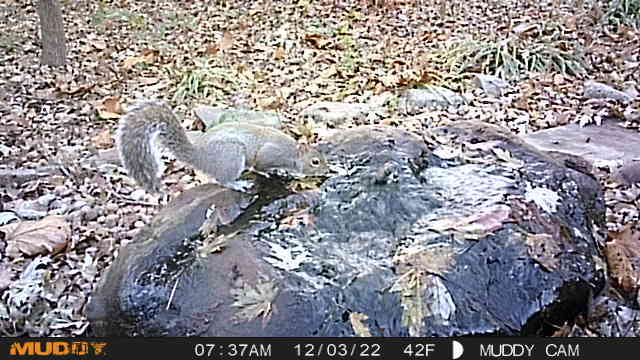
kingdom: Animalia
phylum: Chordata
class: Mammalia
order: Rodentia
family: Sciuridae
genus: Sciurus
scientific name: Sciurus carolinensis
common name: Eastern gray squirrel
